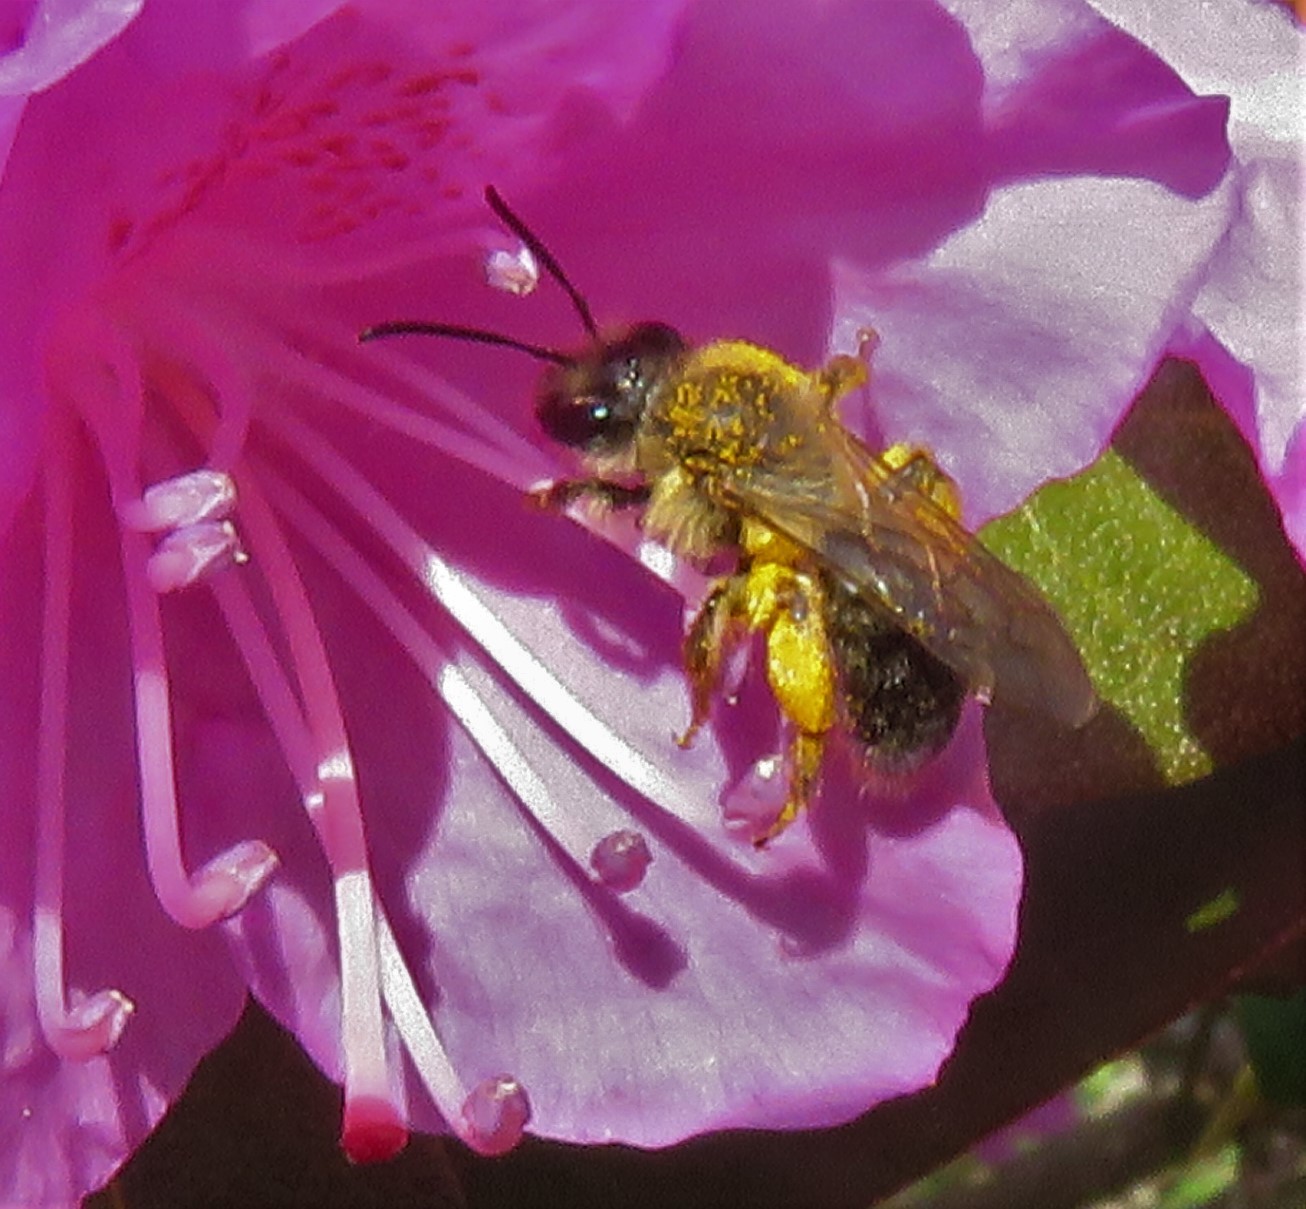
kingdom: Animalia
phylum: Arthropoda
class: Insecta
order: Hymenoptera
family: Andrenidae
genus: Andrena
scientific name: Andrena
